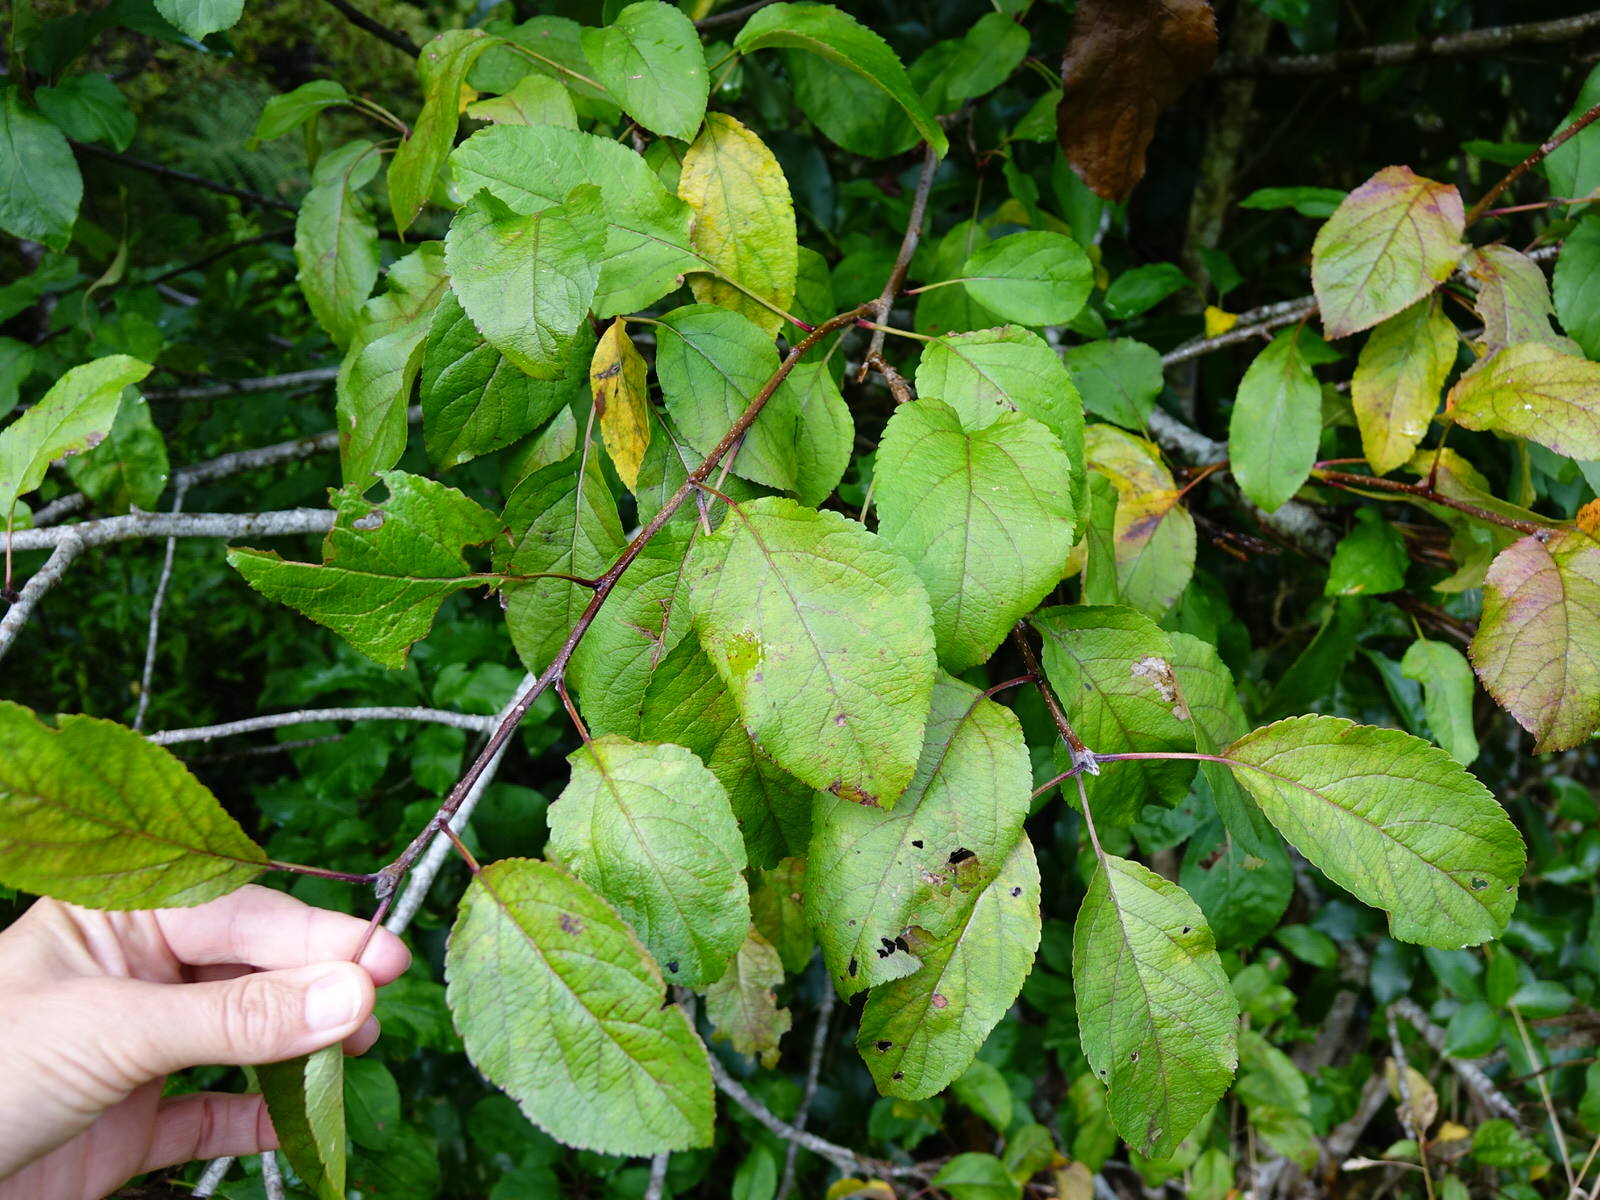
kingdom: Plantae
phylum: Tracheophyta
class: Magnoliopsida
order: Rosales
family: Rosaceae
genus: Malus
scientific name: Malus domestica
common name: Apple
